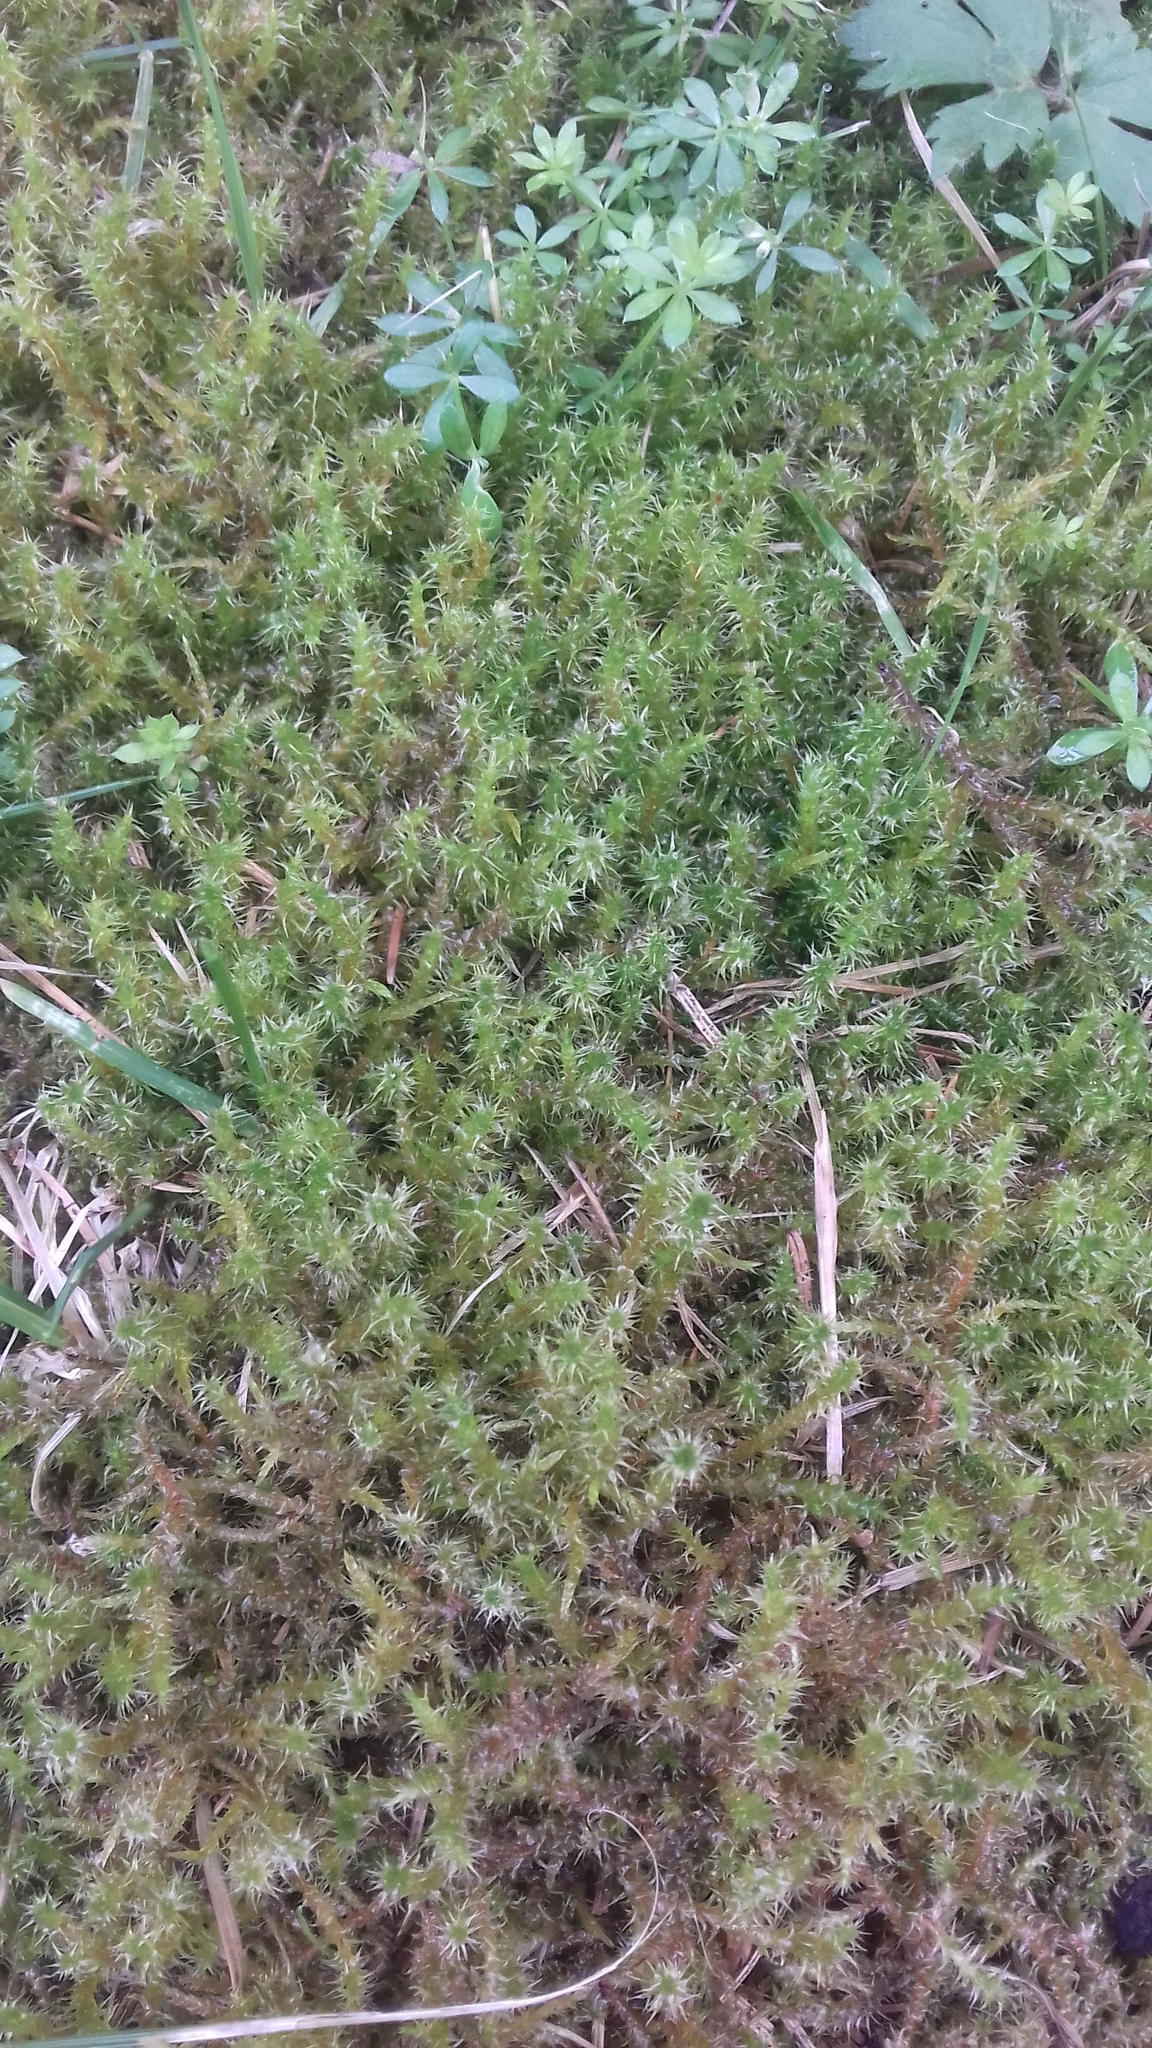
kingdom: Plantae
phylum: Bryophyta
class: Bryopsida
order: Hypnales
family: Hylocomiaceae
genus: Rhytidiadelphus
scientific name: Rhytidiadelphus squarrosus
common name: Springy turf-moss
